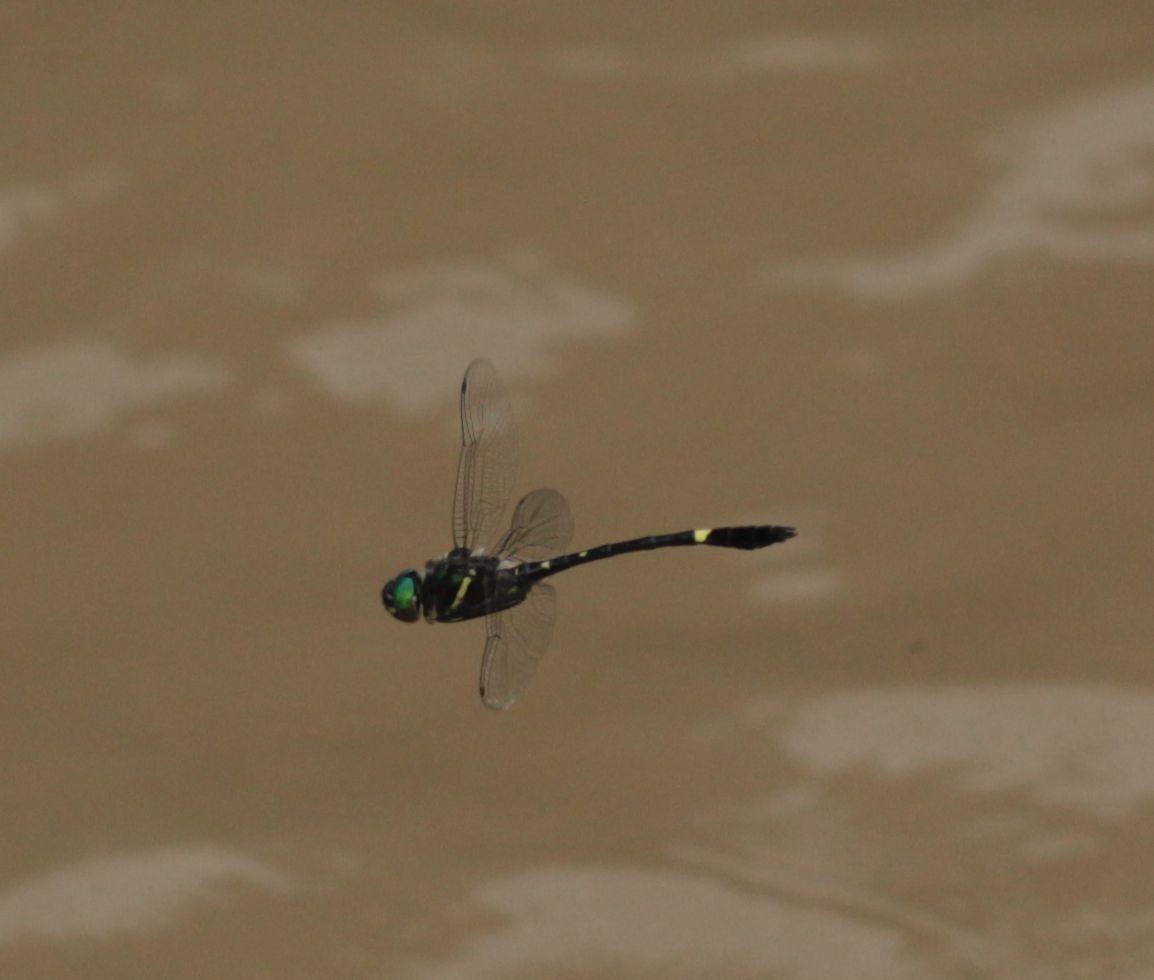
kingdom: Animalia
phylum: Arthropoda
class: Insecta
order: Odonata
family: Macromiidae
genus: Macromia
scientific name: Macromia illinoiensis
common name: Swift river cruiser
